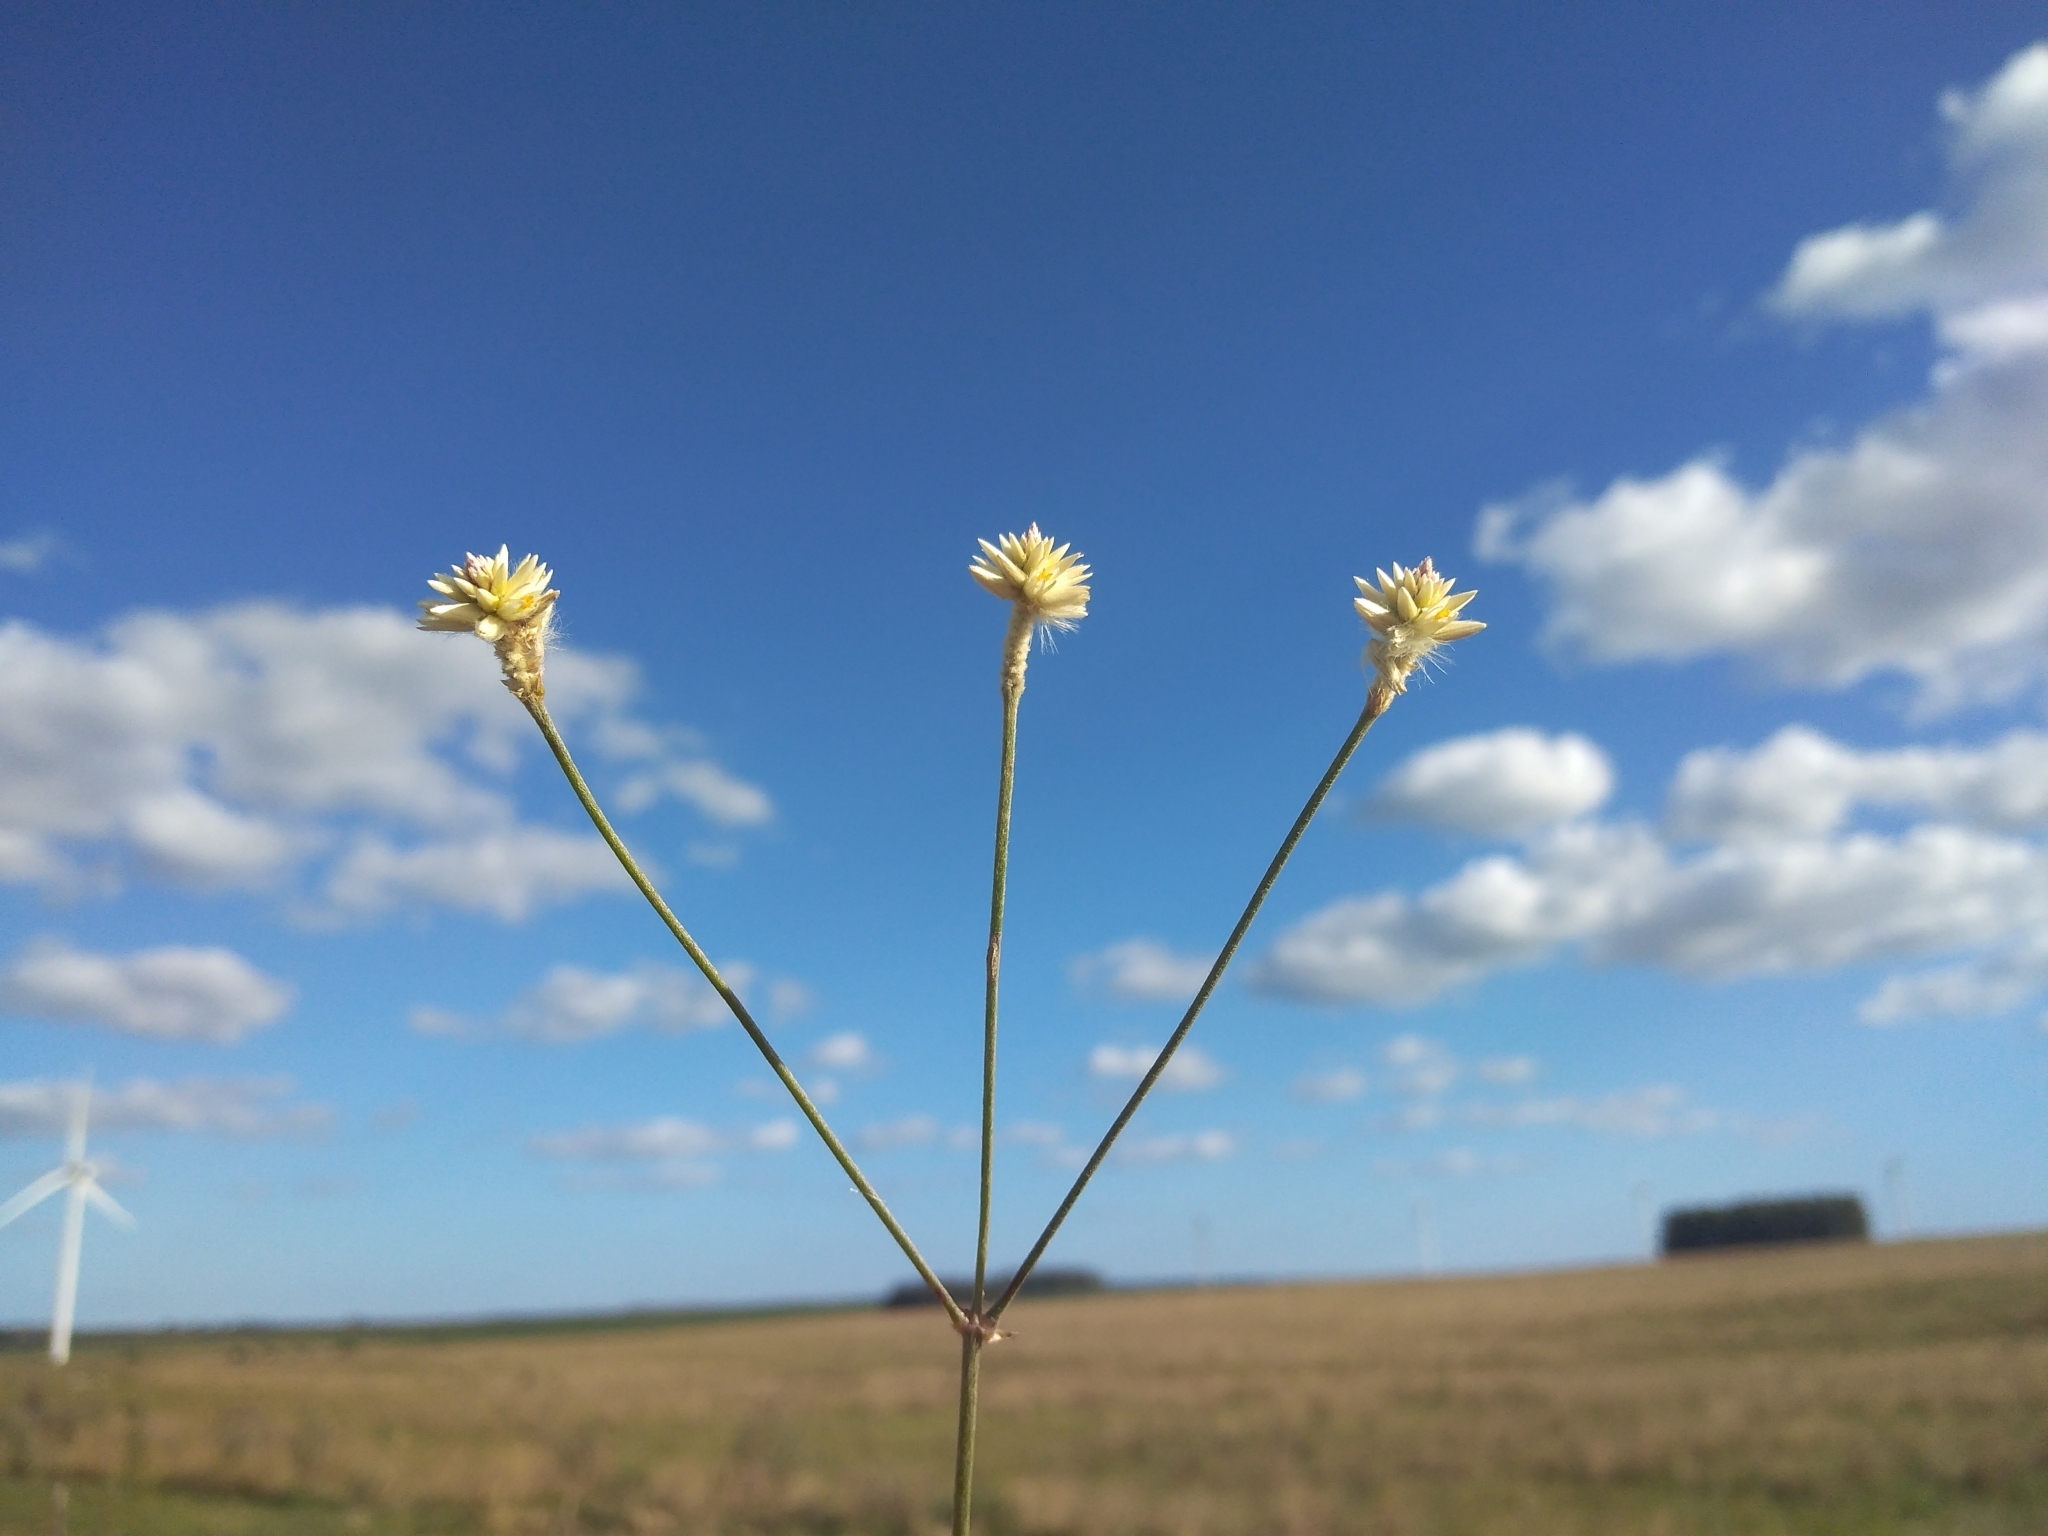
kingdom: Plantae
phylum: Tracheophyta
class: Magnoliopsida
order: Caryophyllales
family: Amaranthaceae
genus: Pfaffia
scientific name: Pfaffia tuberosa
